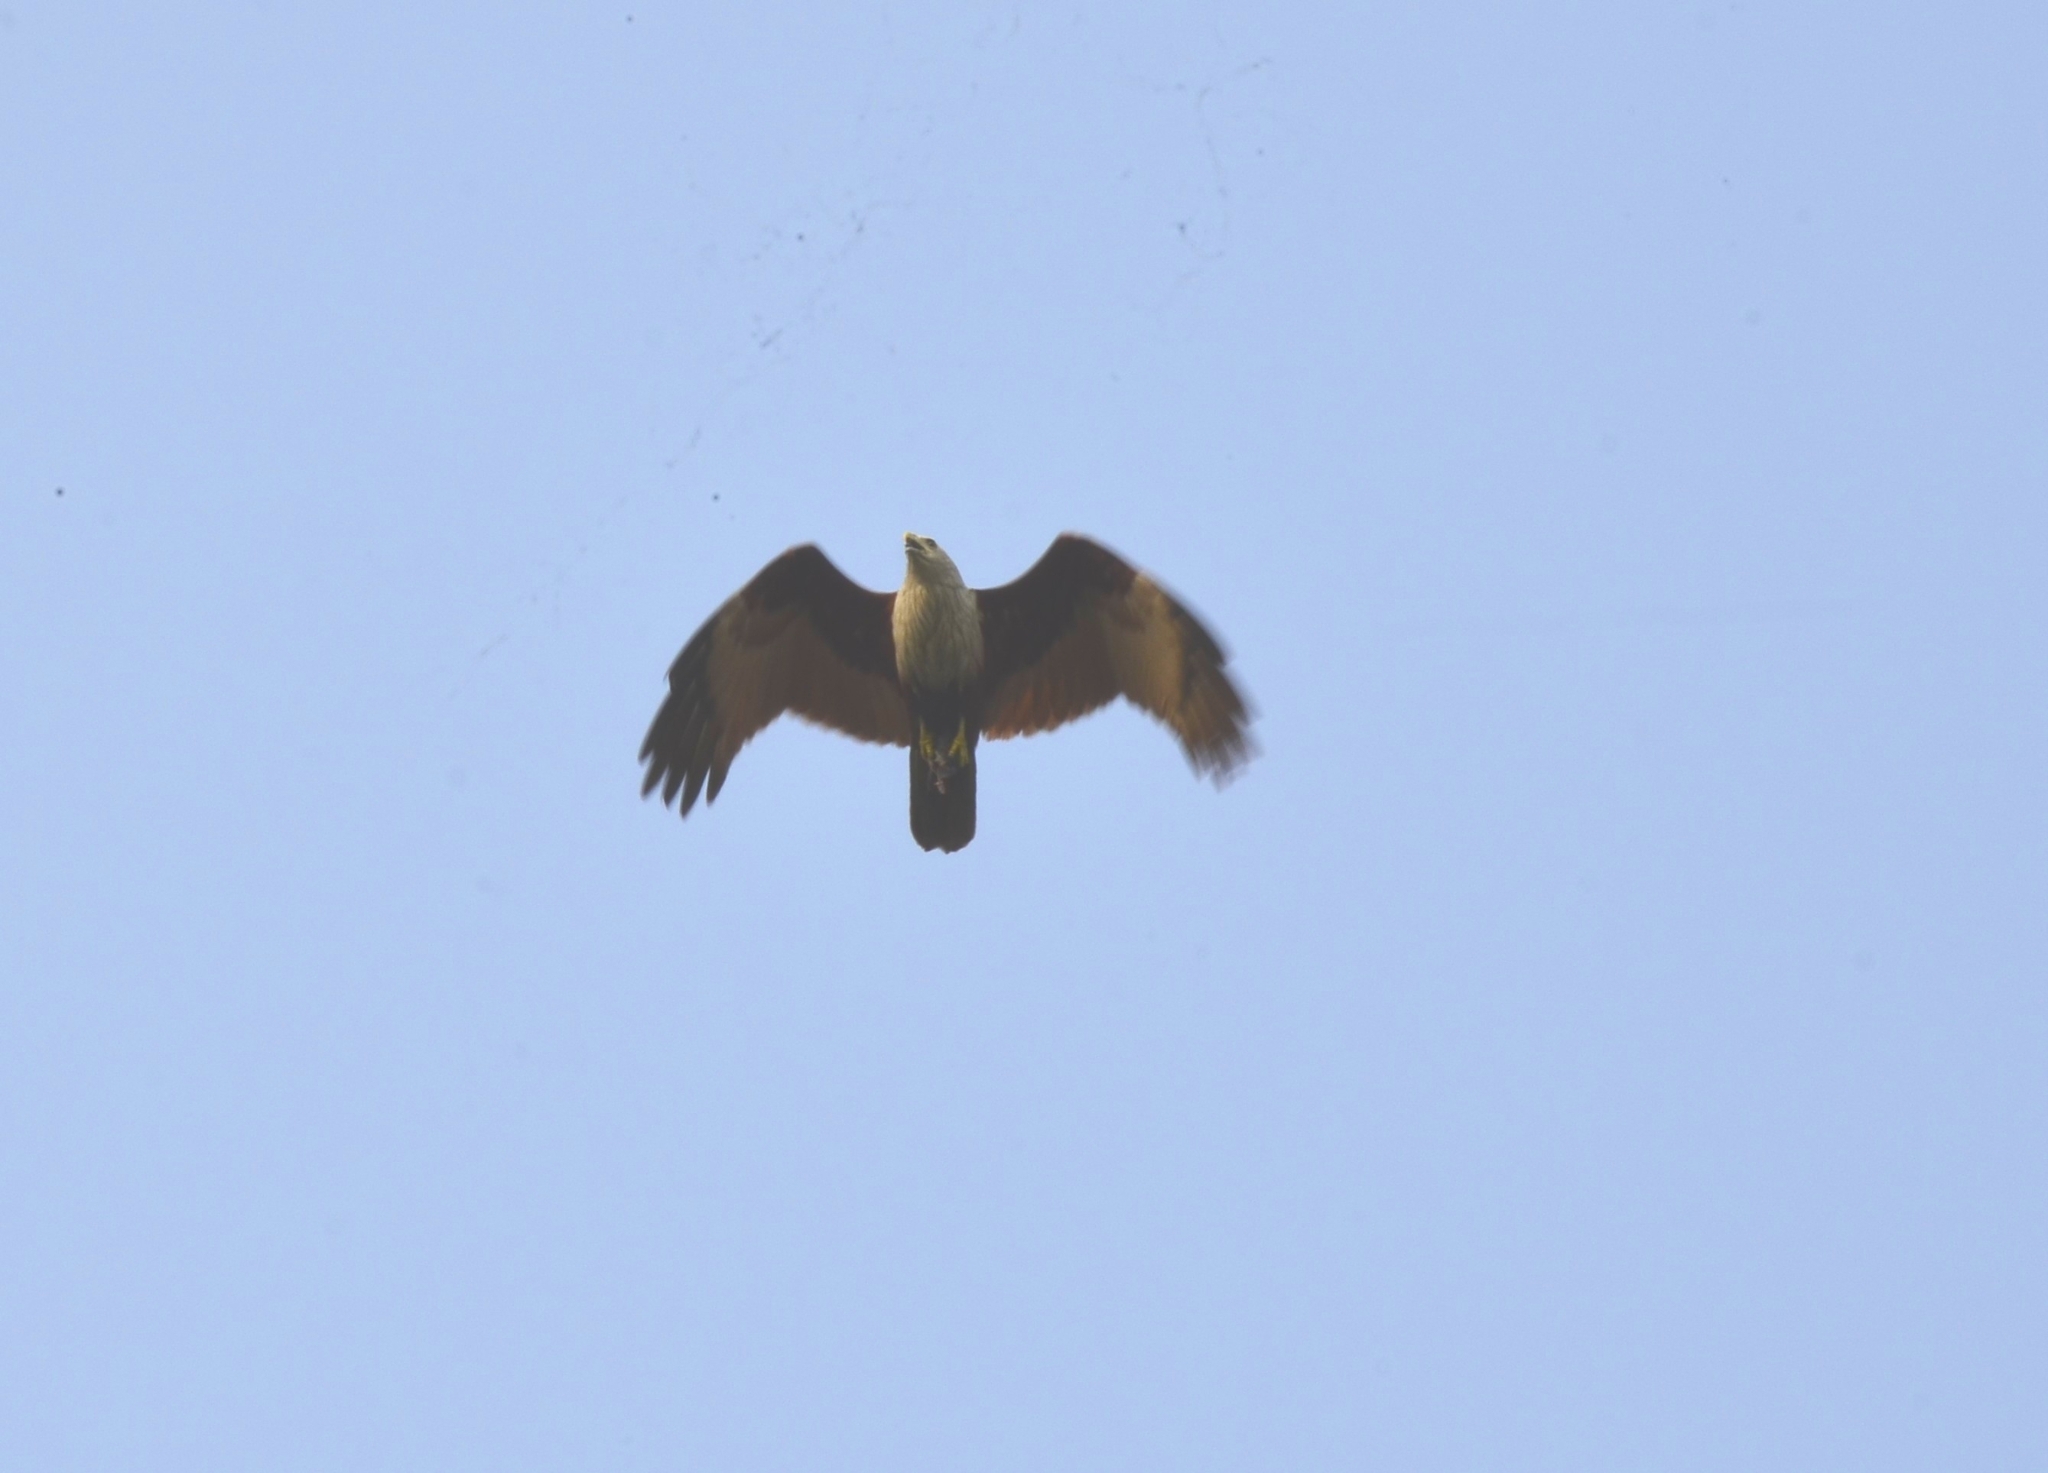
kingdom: Animalia
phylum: Chordata
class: Aves
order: Accipitriformes
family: Accipitridae
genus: Haliastur
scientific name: Haliastur indus
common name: Brahminy kite
